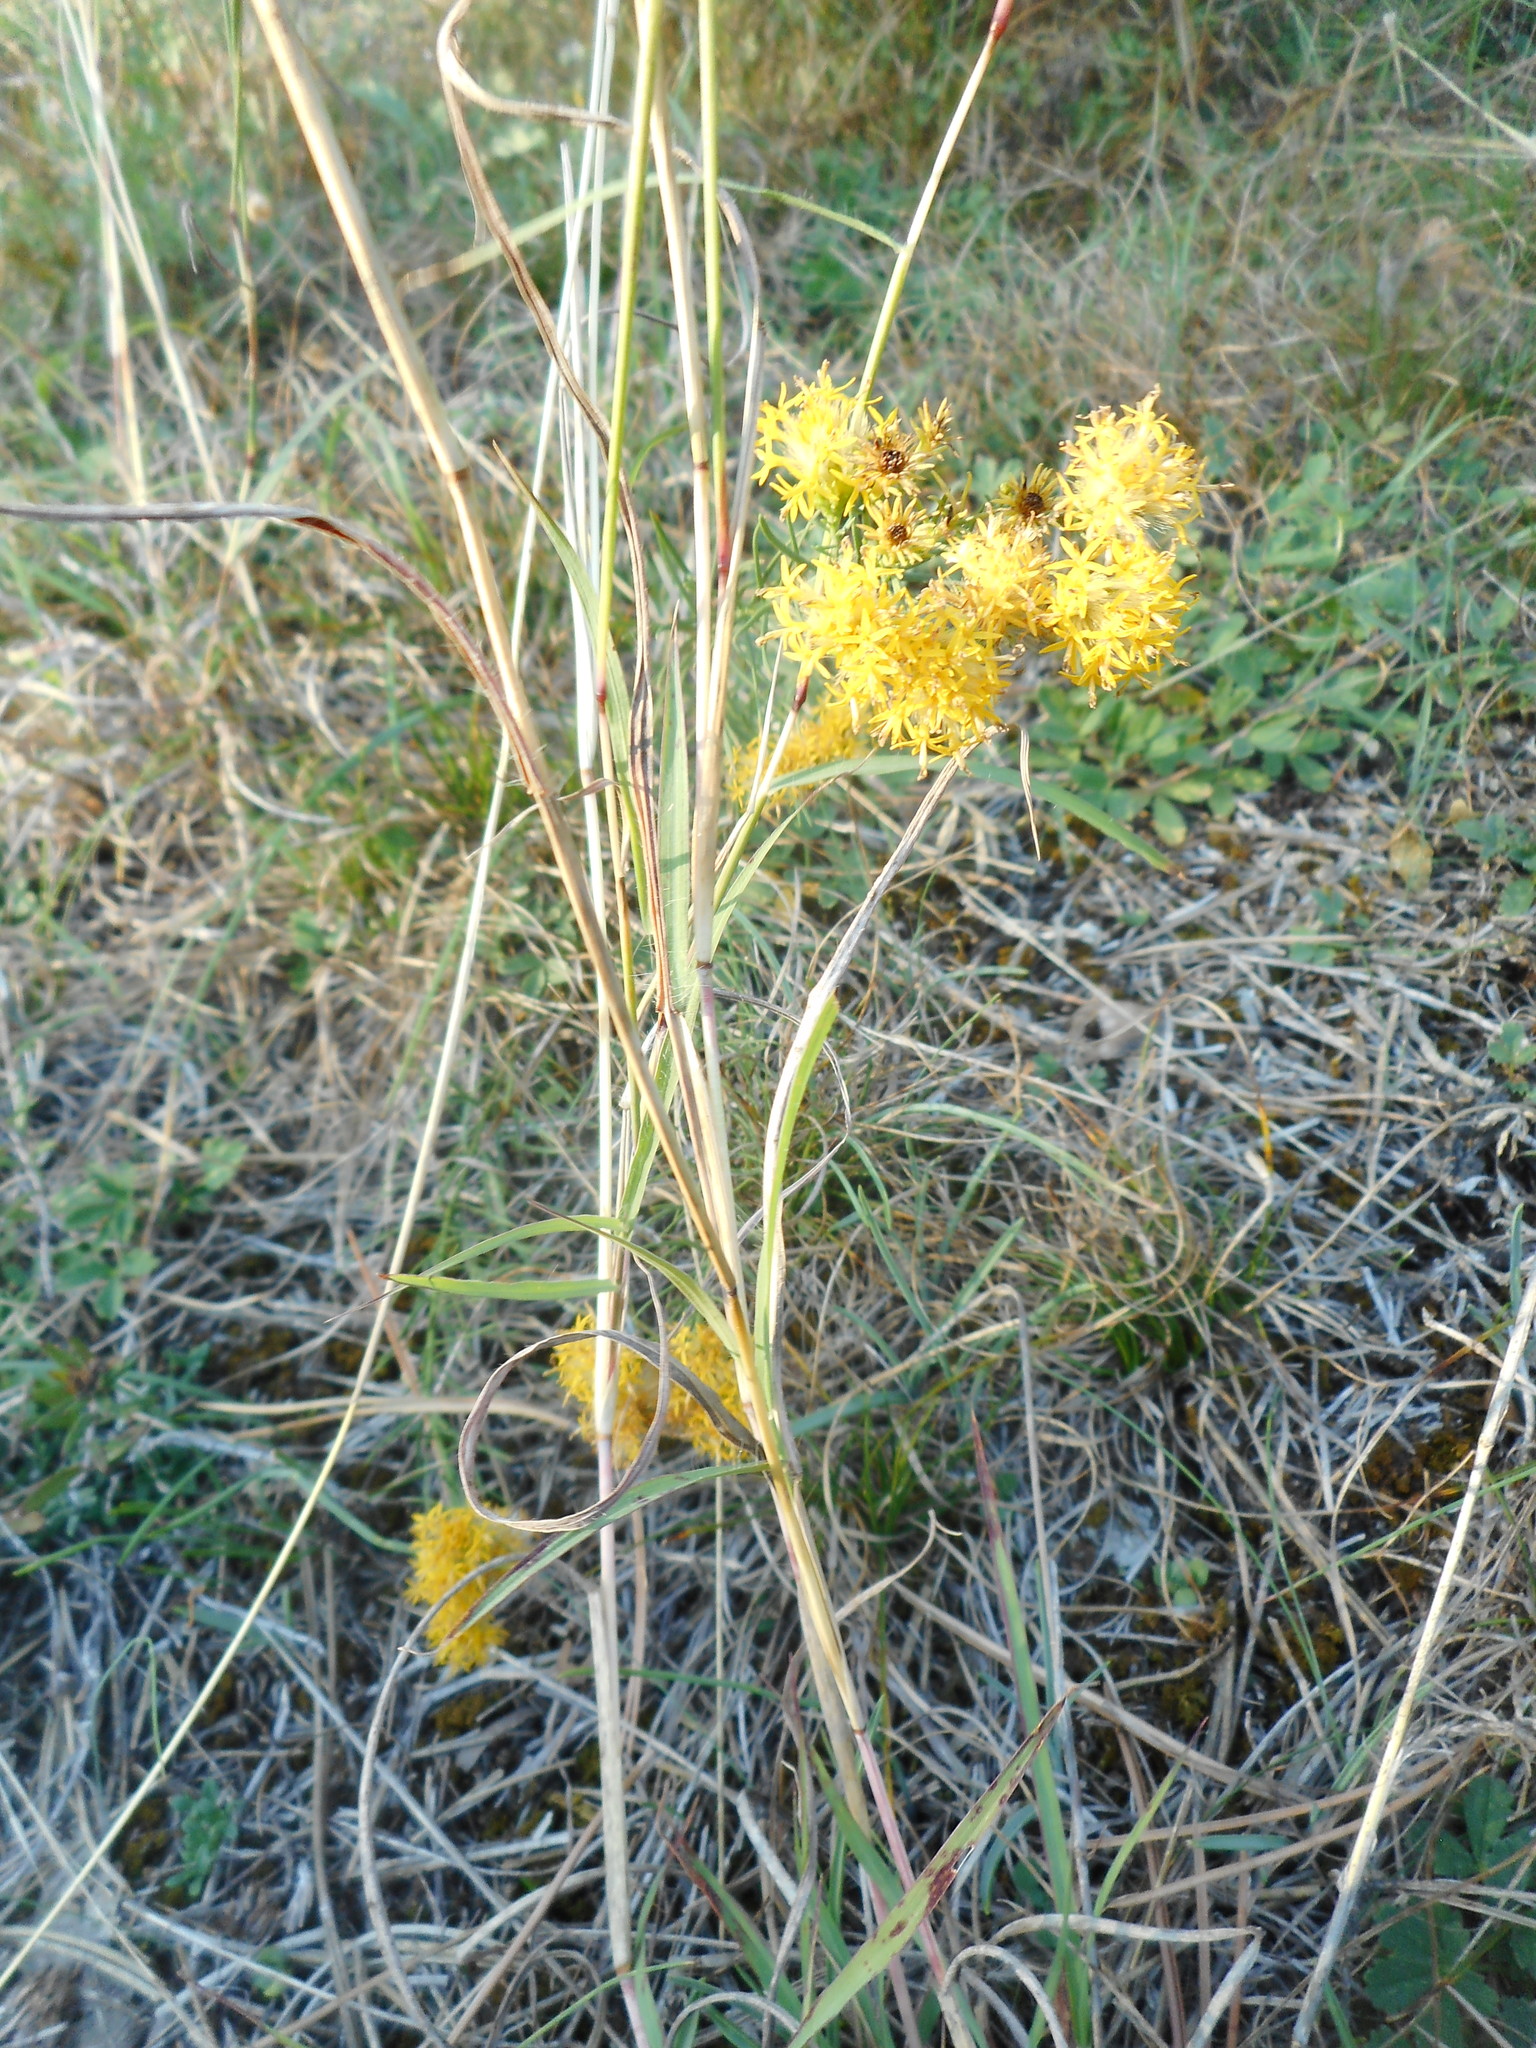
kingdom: Plantae
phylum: Tracheophyta
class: Magnoliopsida
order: Asterales
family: Asteraceae
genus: Galatella
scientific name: Galatella linosyris
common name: Goldilocks aster
